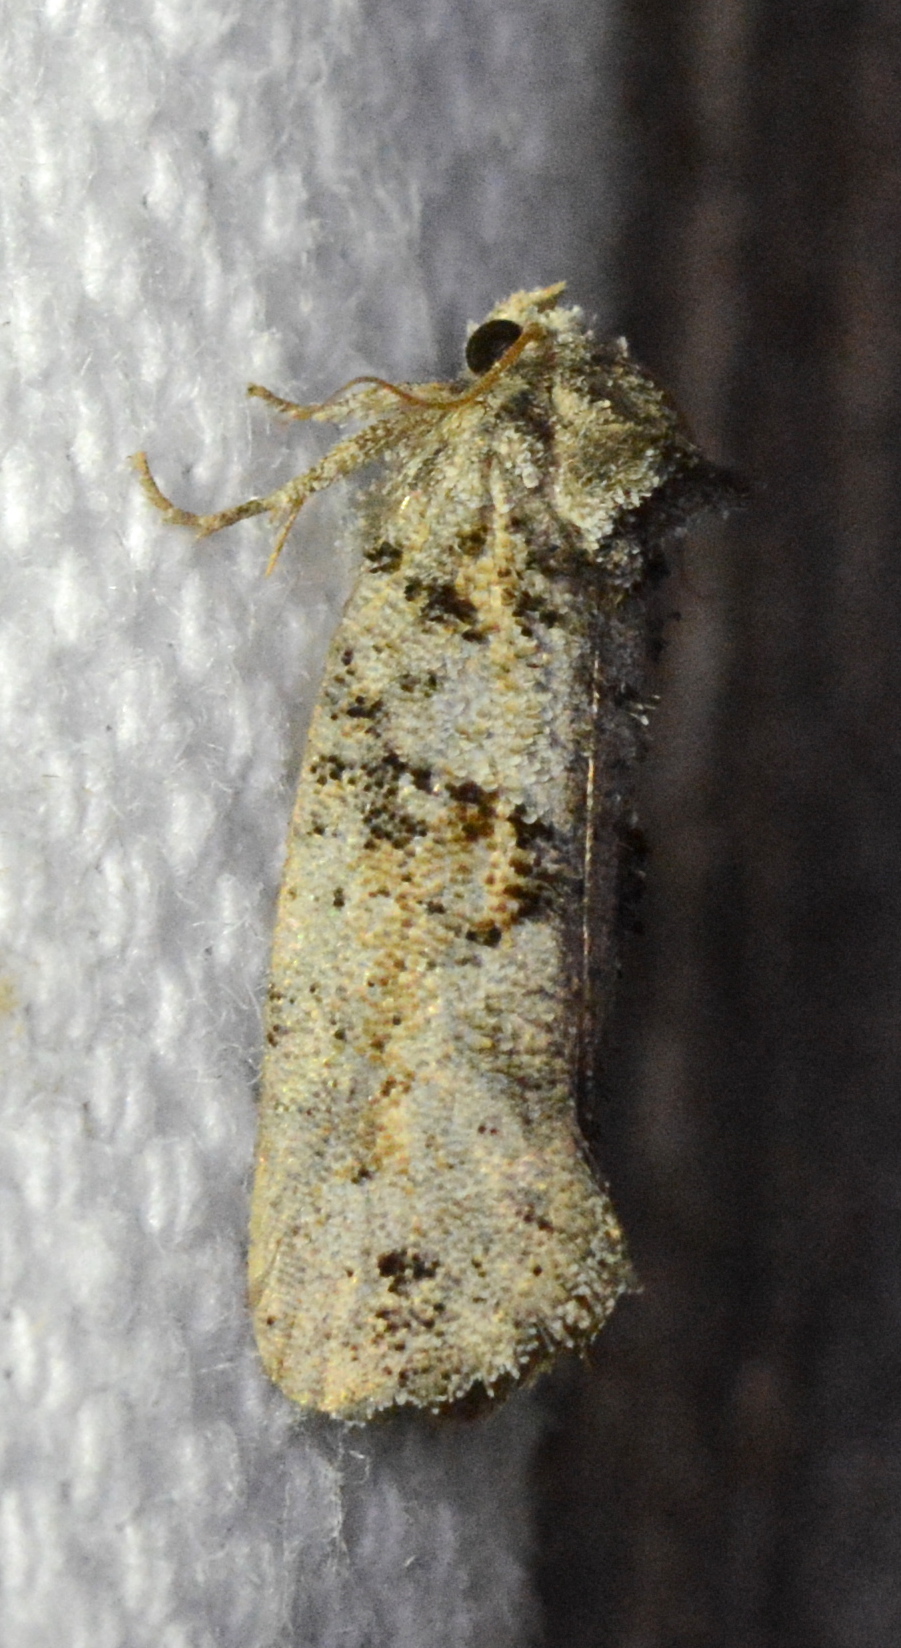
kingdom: Animalia
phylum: Arthropoda
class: Insecta
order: Lepidoptera
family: Tineidae
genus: Acrolophus
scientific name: Acrolophus piger
